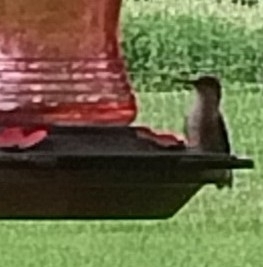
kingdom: Animalia
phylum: Chordata
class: Aves
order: Apodiformes
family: Trochilidae
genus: Archilochus
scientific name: Archilochus colubris
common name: Ruby-throated hummingbird
